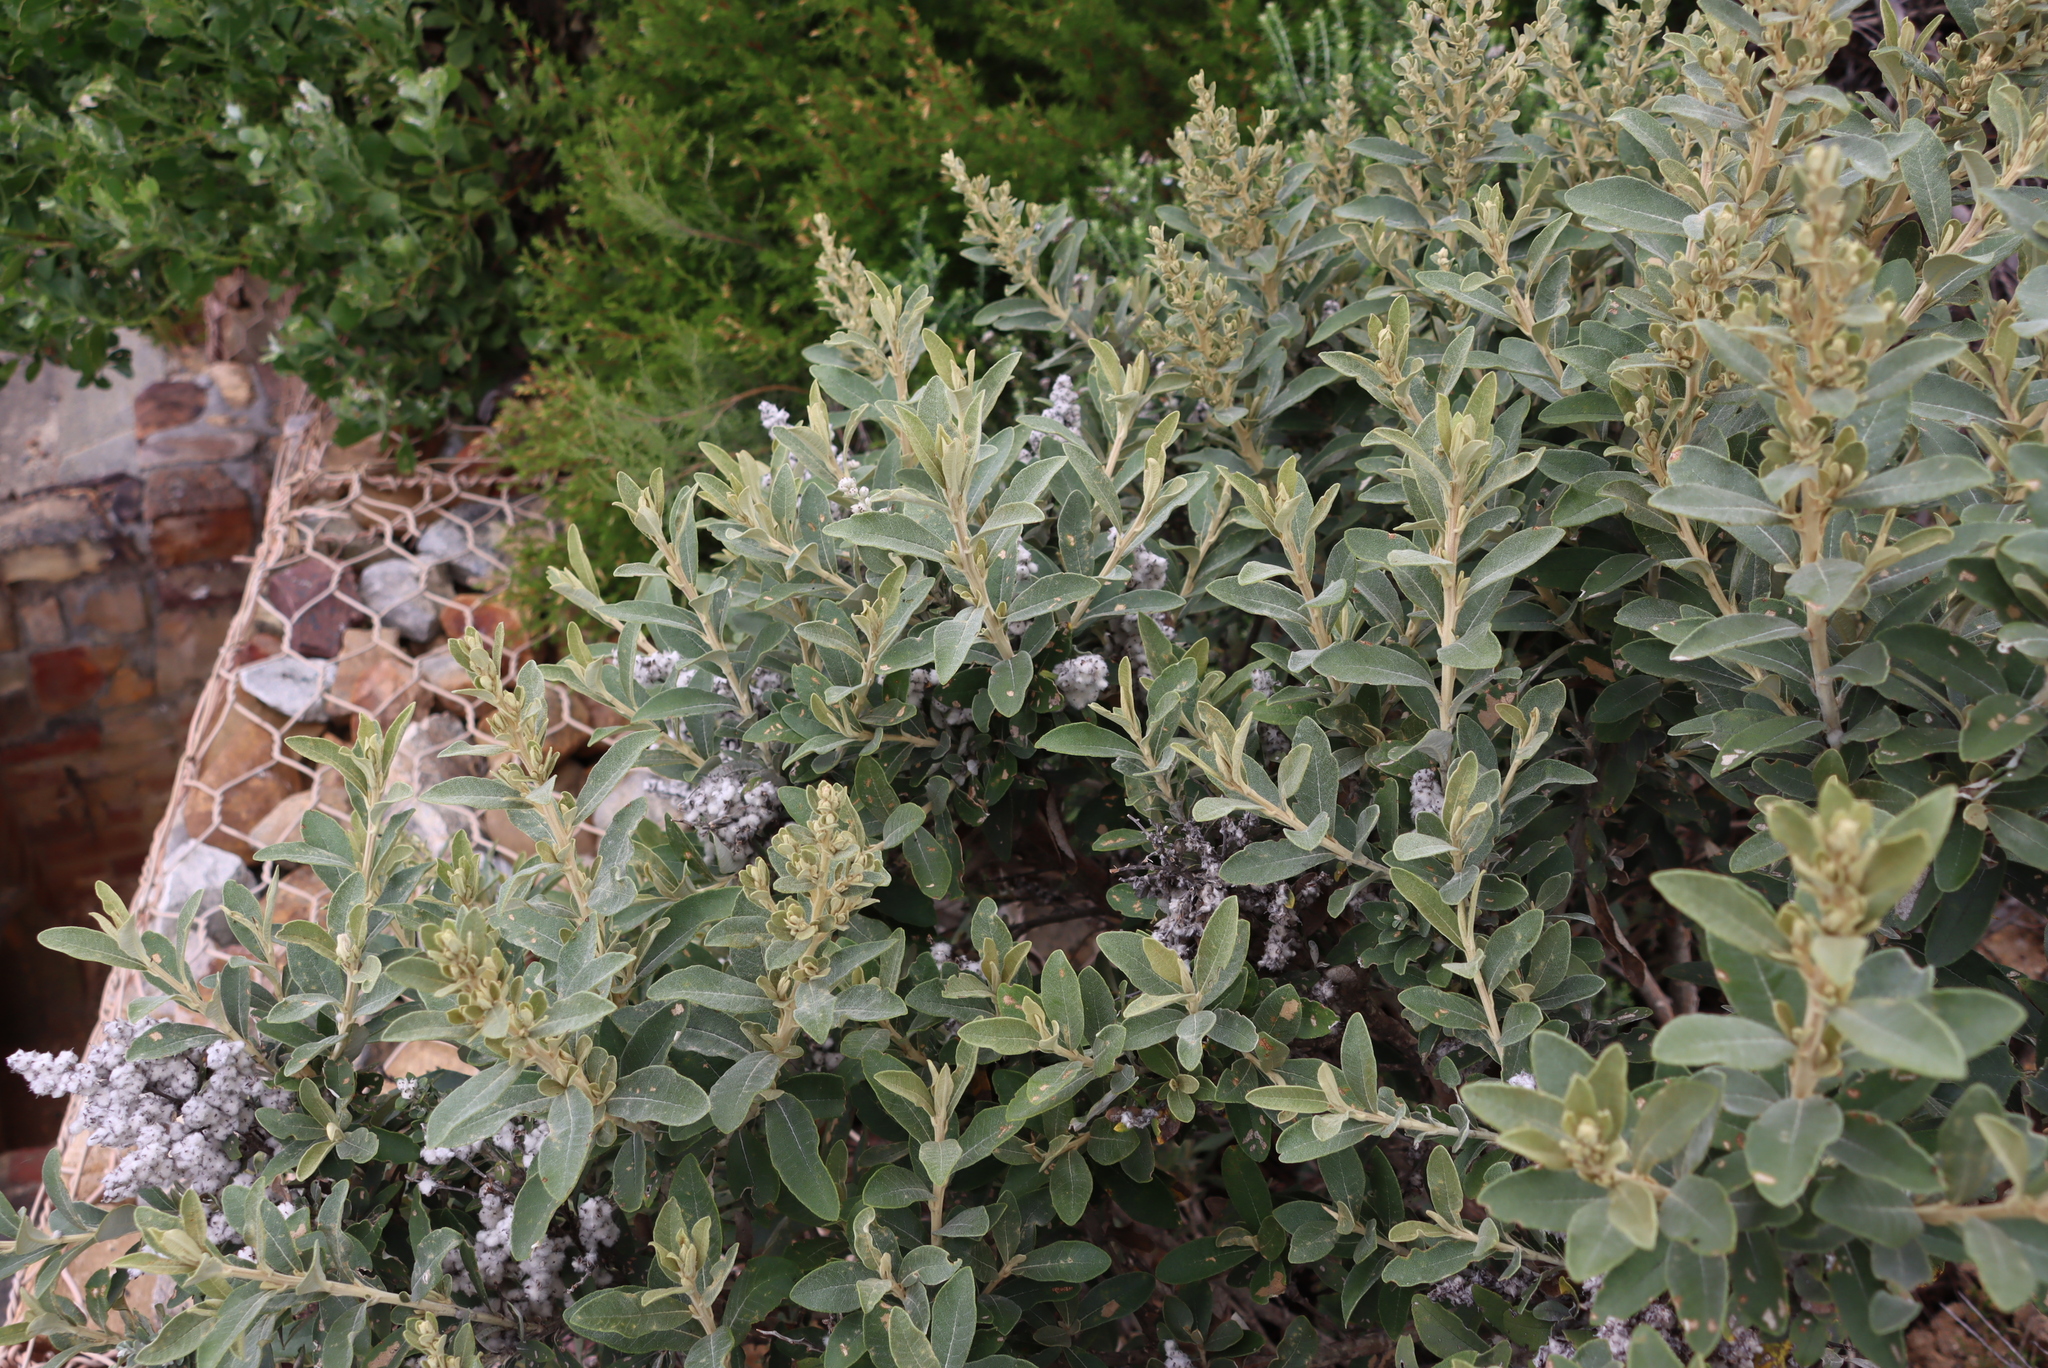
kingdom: Plantae
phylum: Tracheophyta
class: Magnoliopsida
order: Asterales
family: Asteraceae
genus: Tarchonanthus
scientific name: Tarchonanthus littoralis
